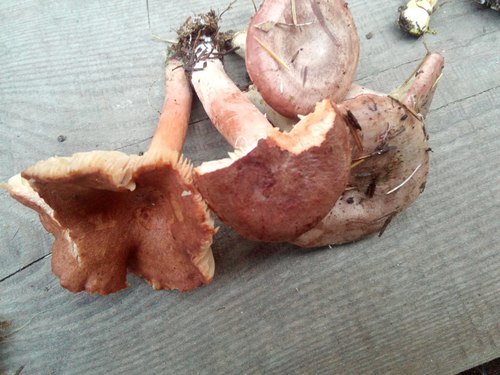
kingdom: Fungi
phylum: Basidiomycota
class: Agaricomycetes
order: Russulales
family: Russulaceae
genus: Lactarius
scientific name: Lactarius rufus
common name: Rufous milk-cap
